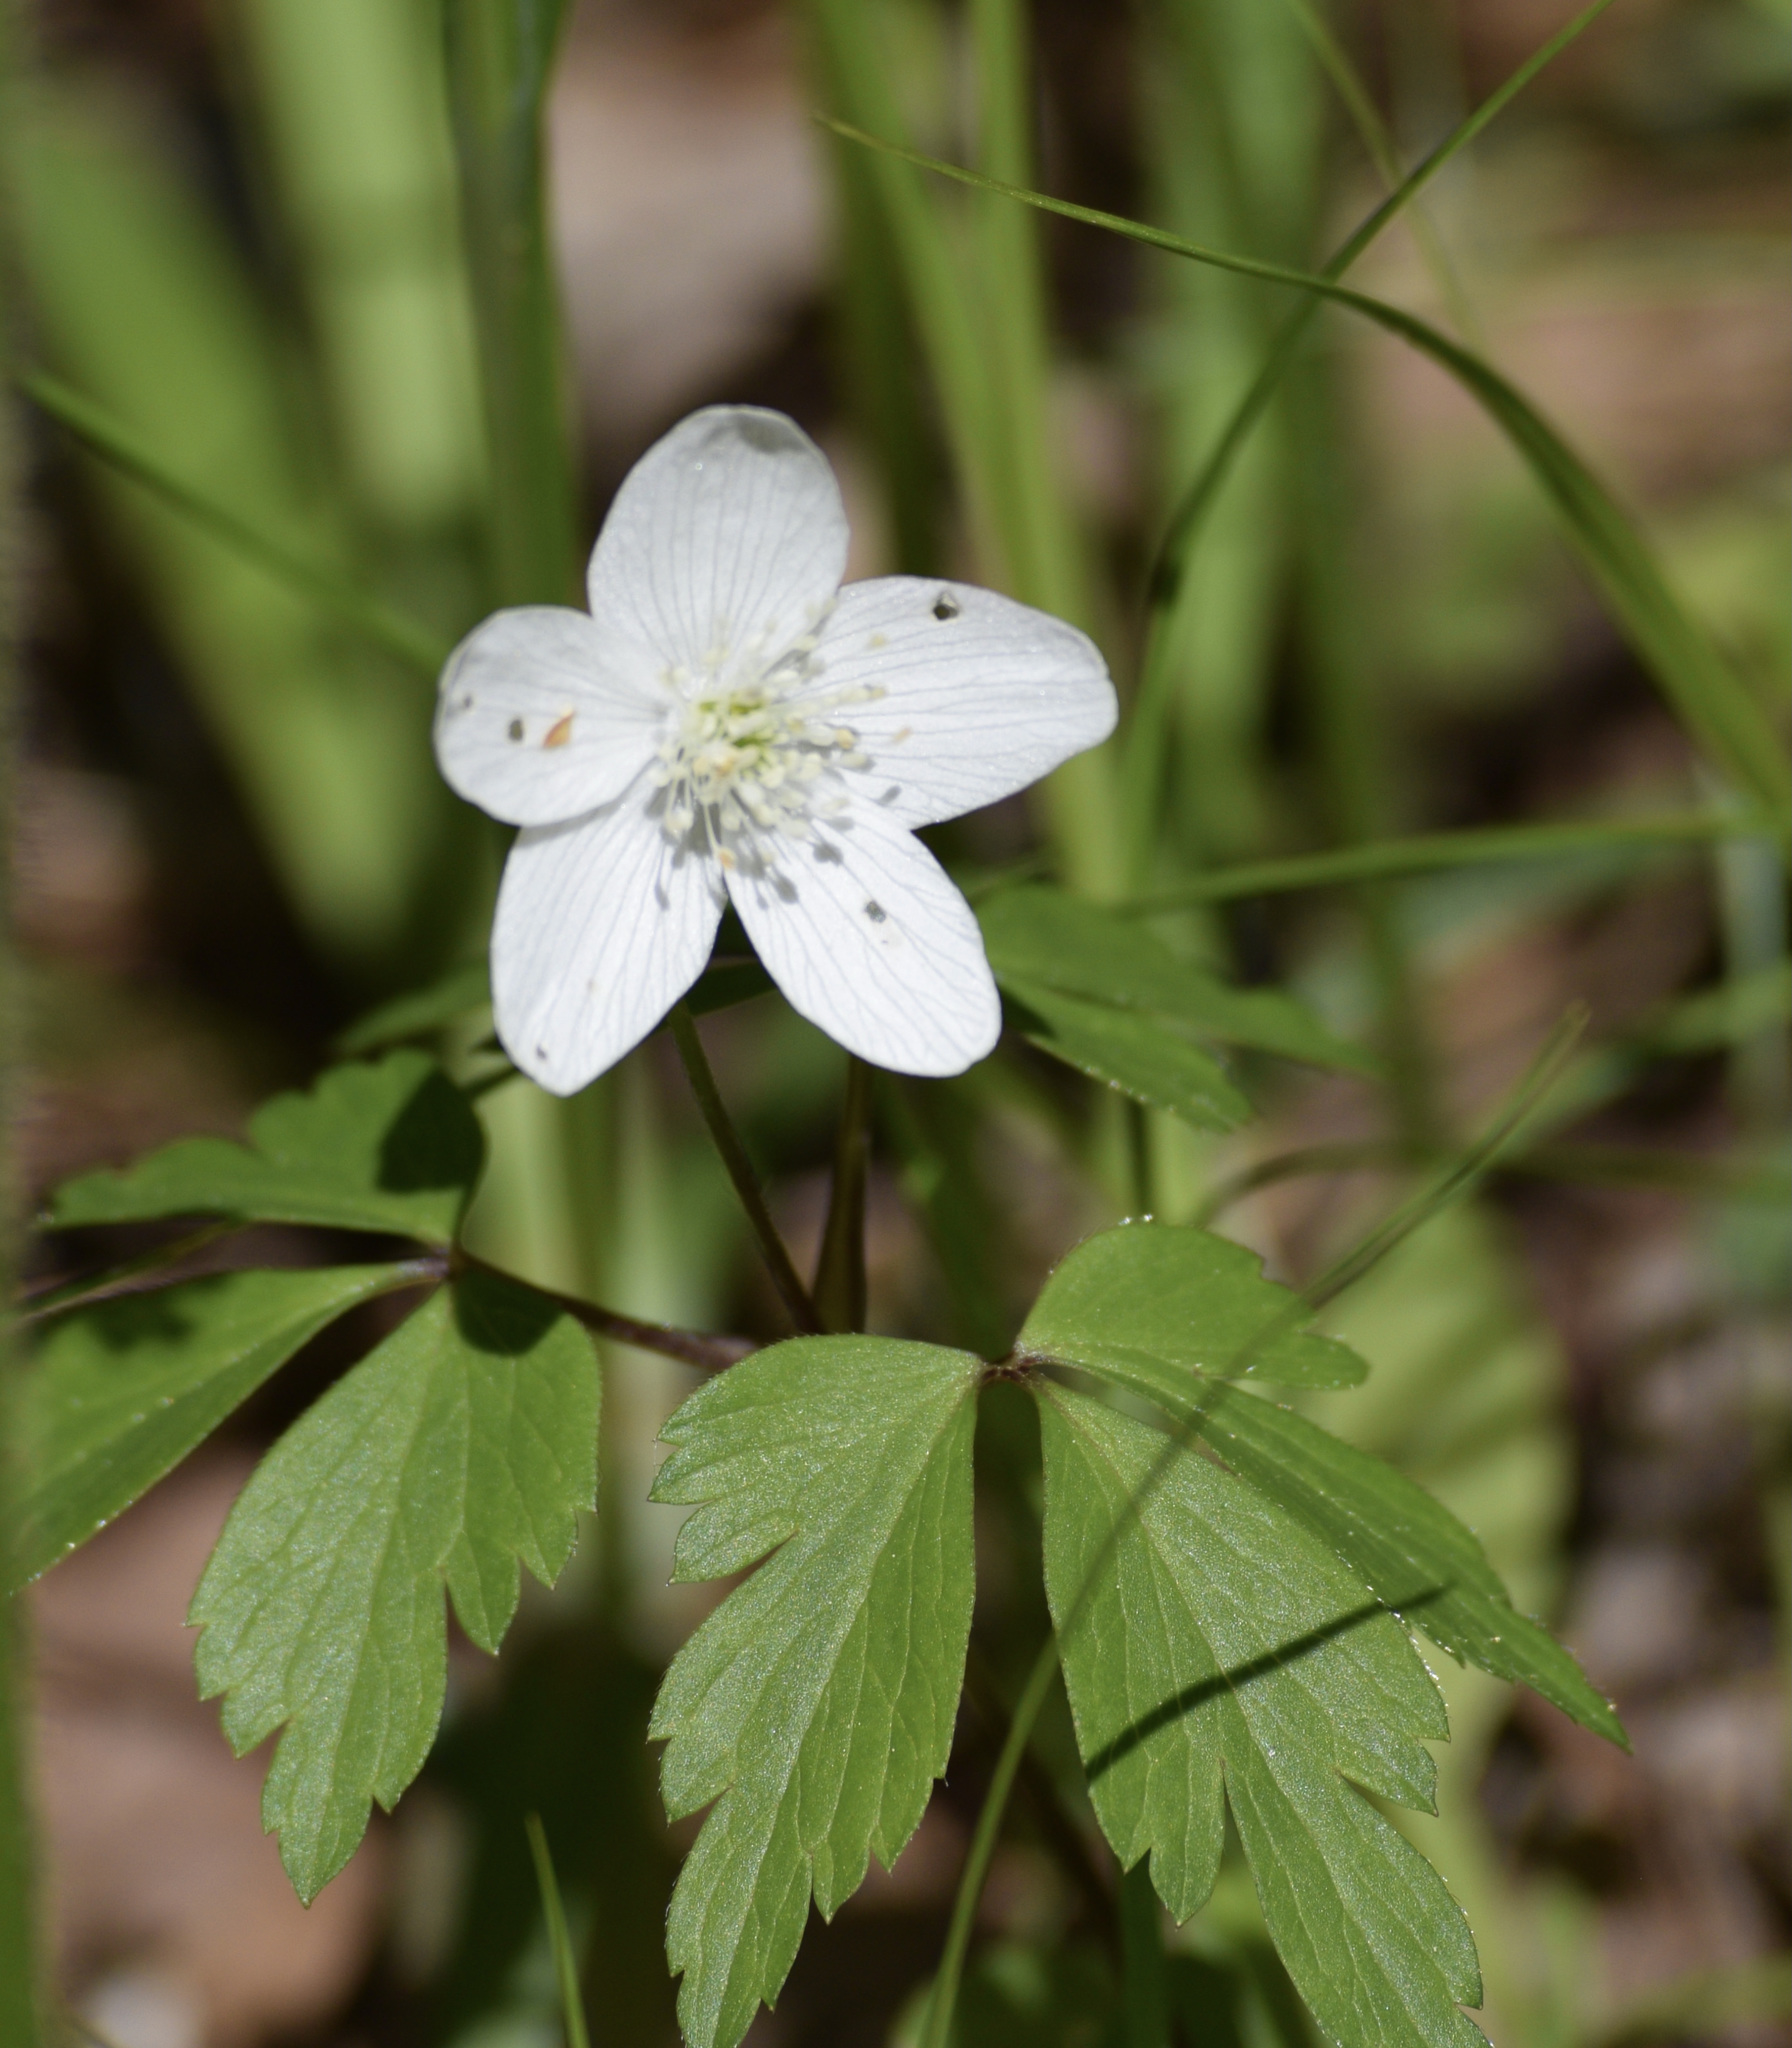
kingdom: Plantae
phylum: Tracheophyta
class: Magnoliopsida
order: Ranunculales
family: Ranunculaceae
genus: Anemone
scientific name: Anemone quinquefolia
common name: Wood anemone
